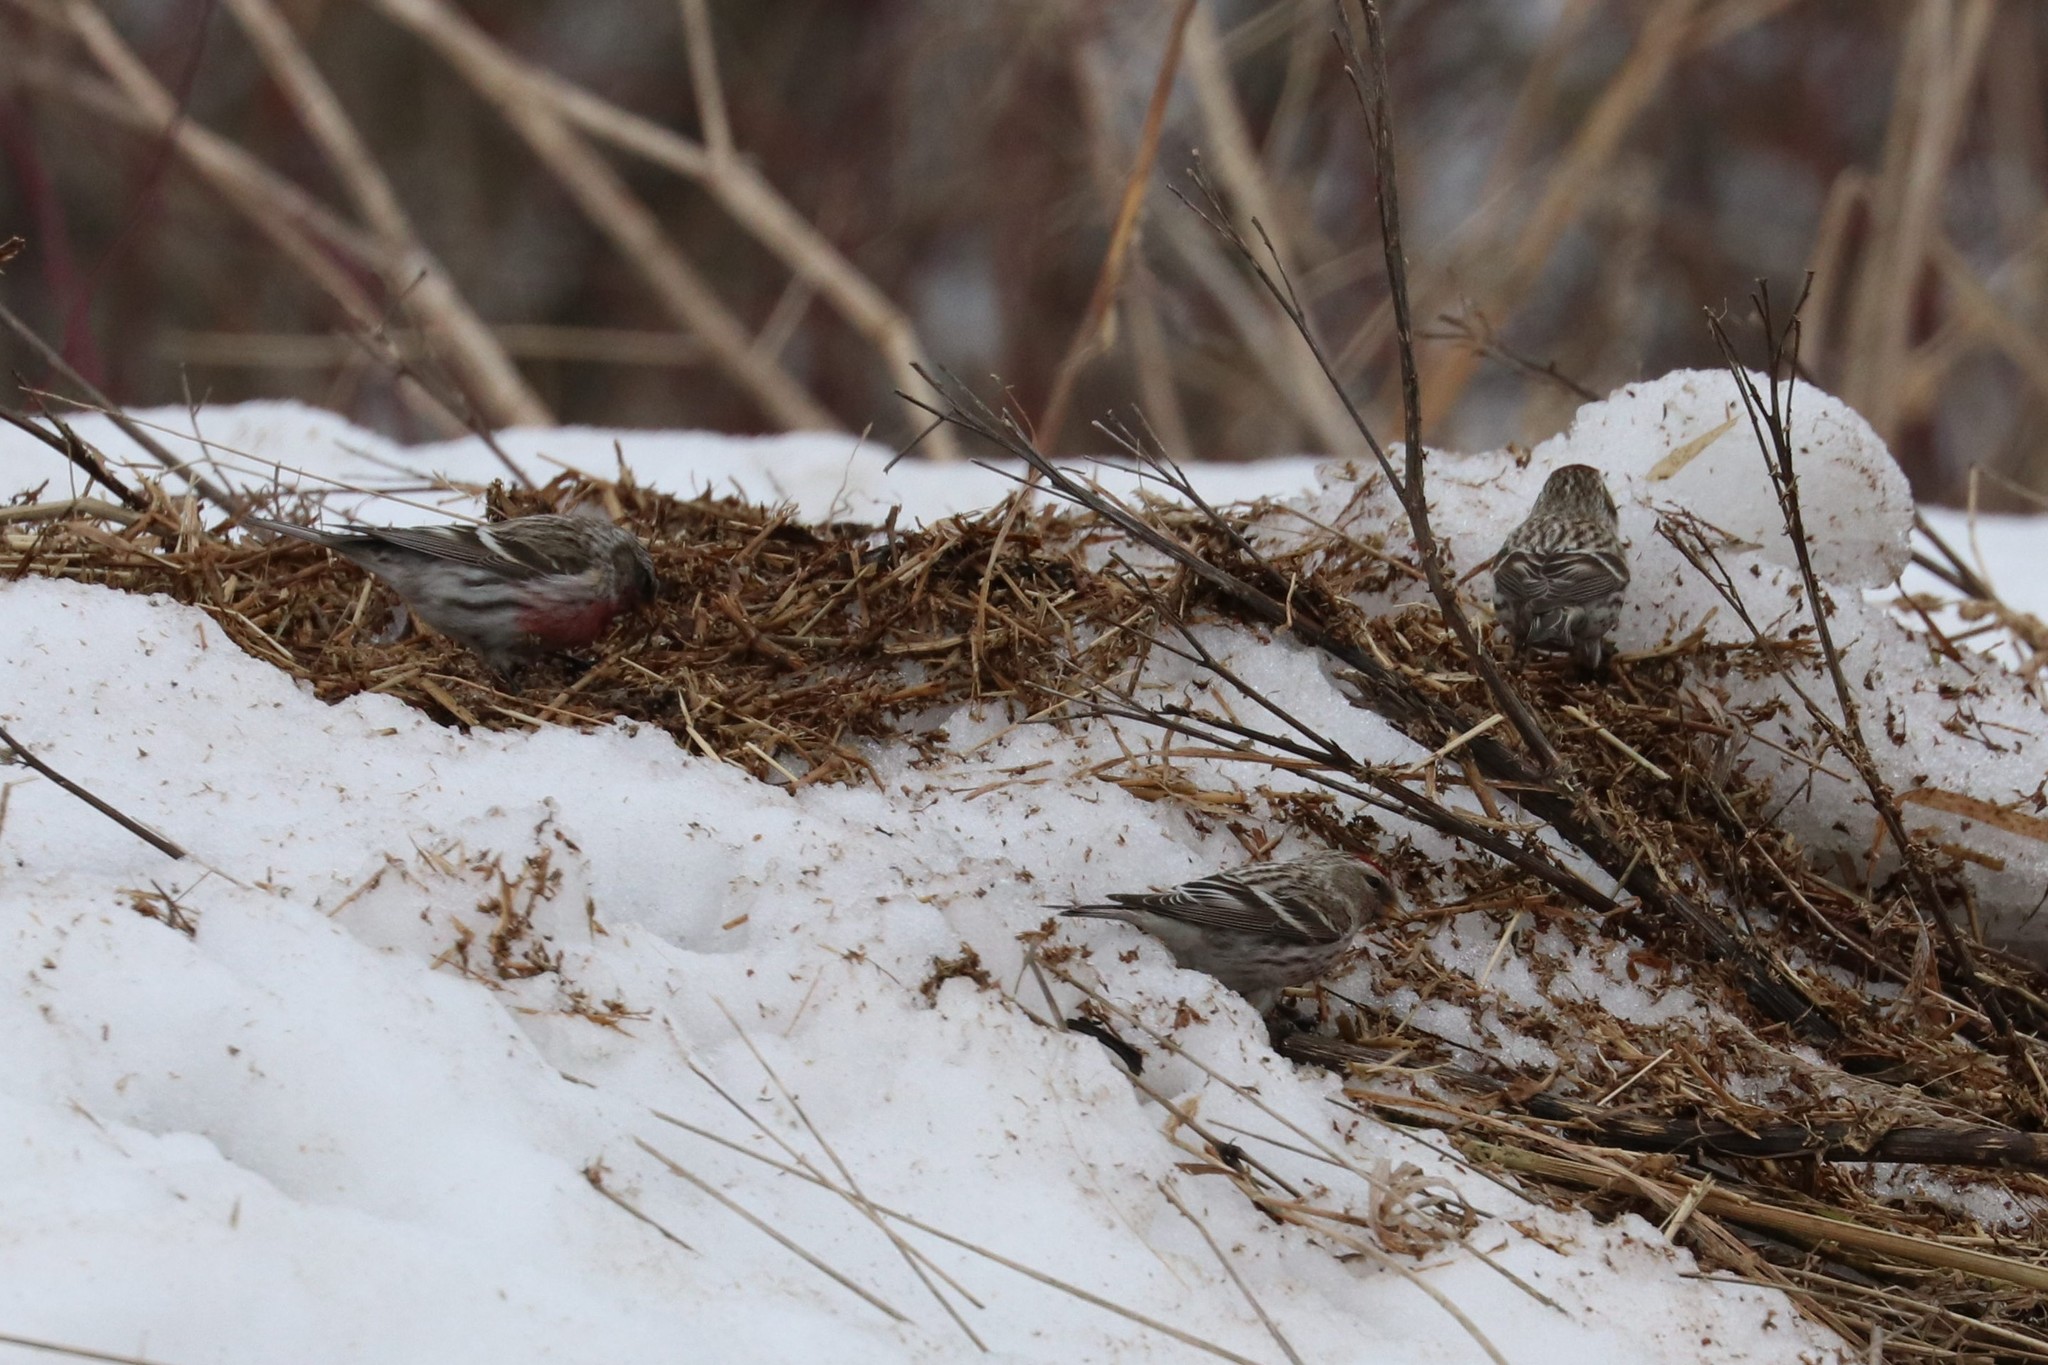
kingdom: Animalia
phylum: Chordata
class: Aves
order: Passeriformes
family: Fringillidae
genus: Acanthis
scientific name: Acanthis flammea
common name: Common redpoll
